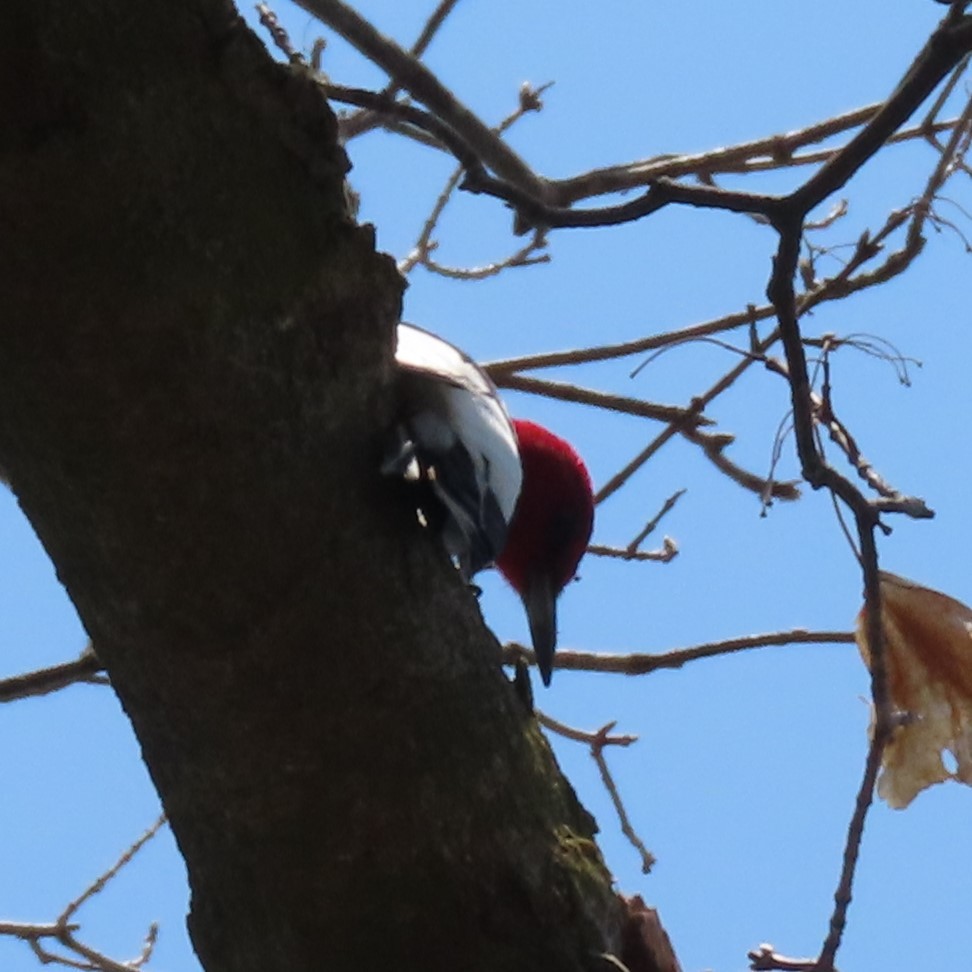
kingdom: Animalia
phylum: Chordata
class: Aves
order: Piciformes
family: Picidae
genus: Melanerpes
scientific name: Melanerpes erythrocephalus
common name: Red-headed woodpecker
